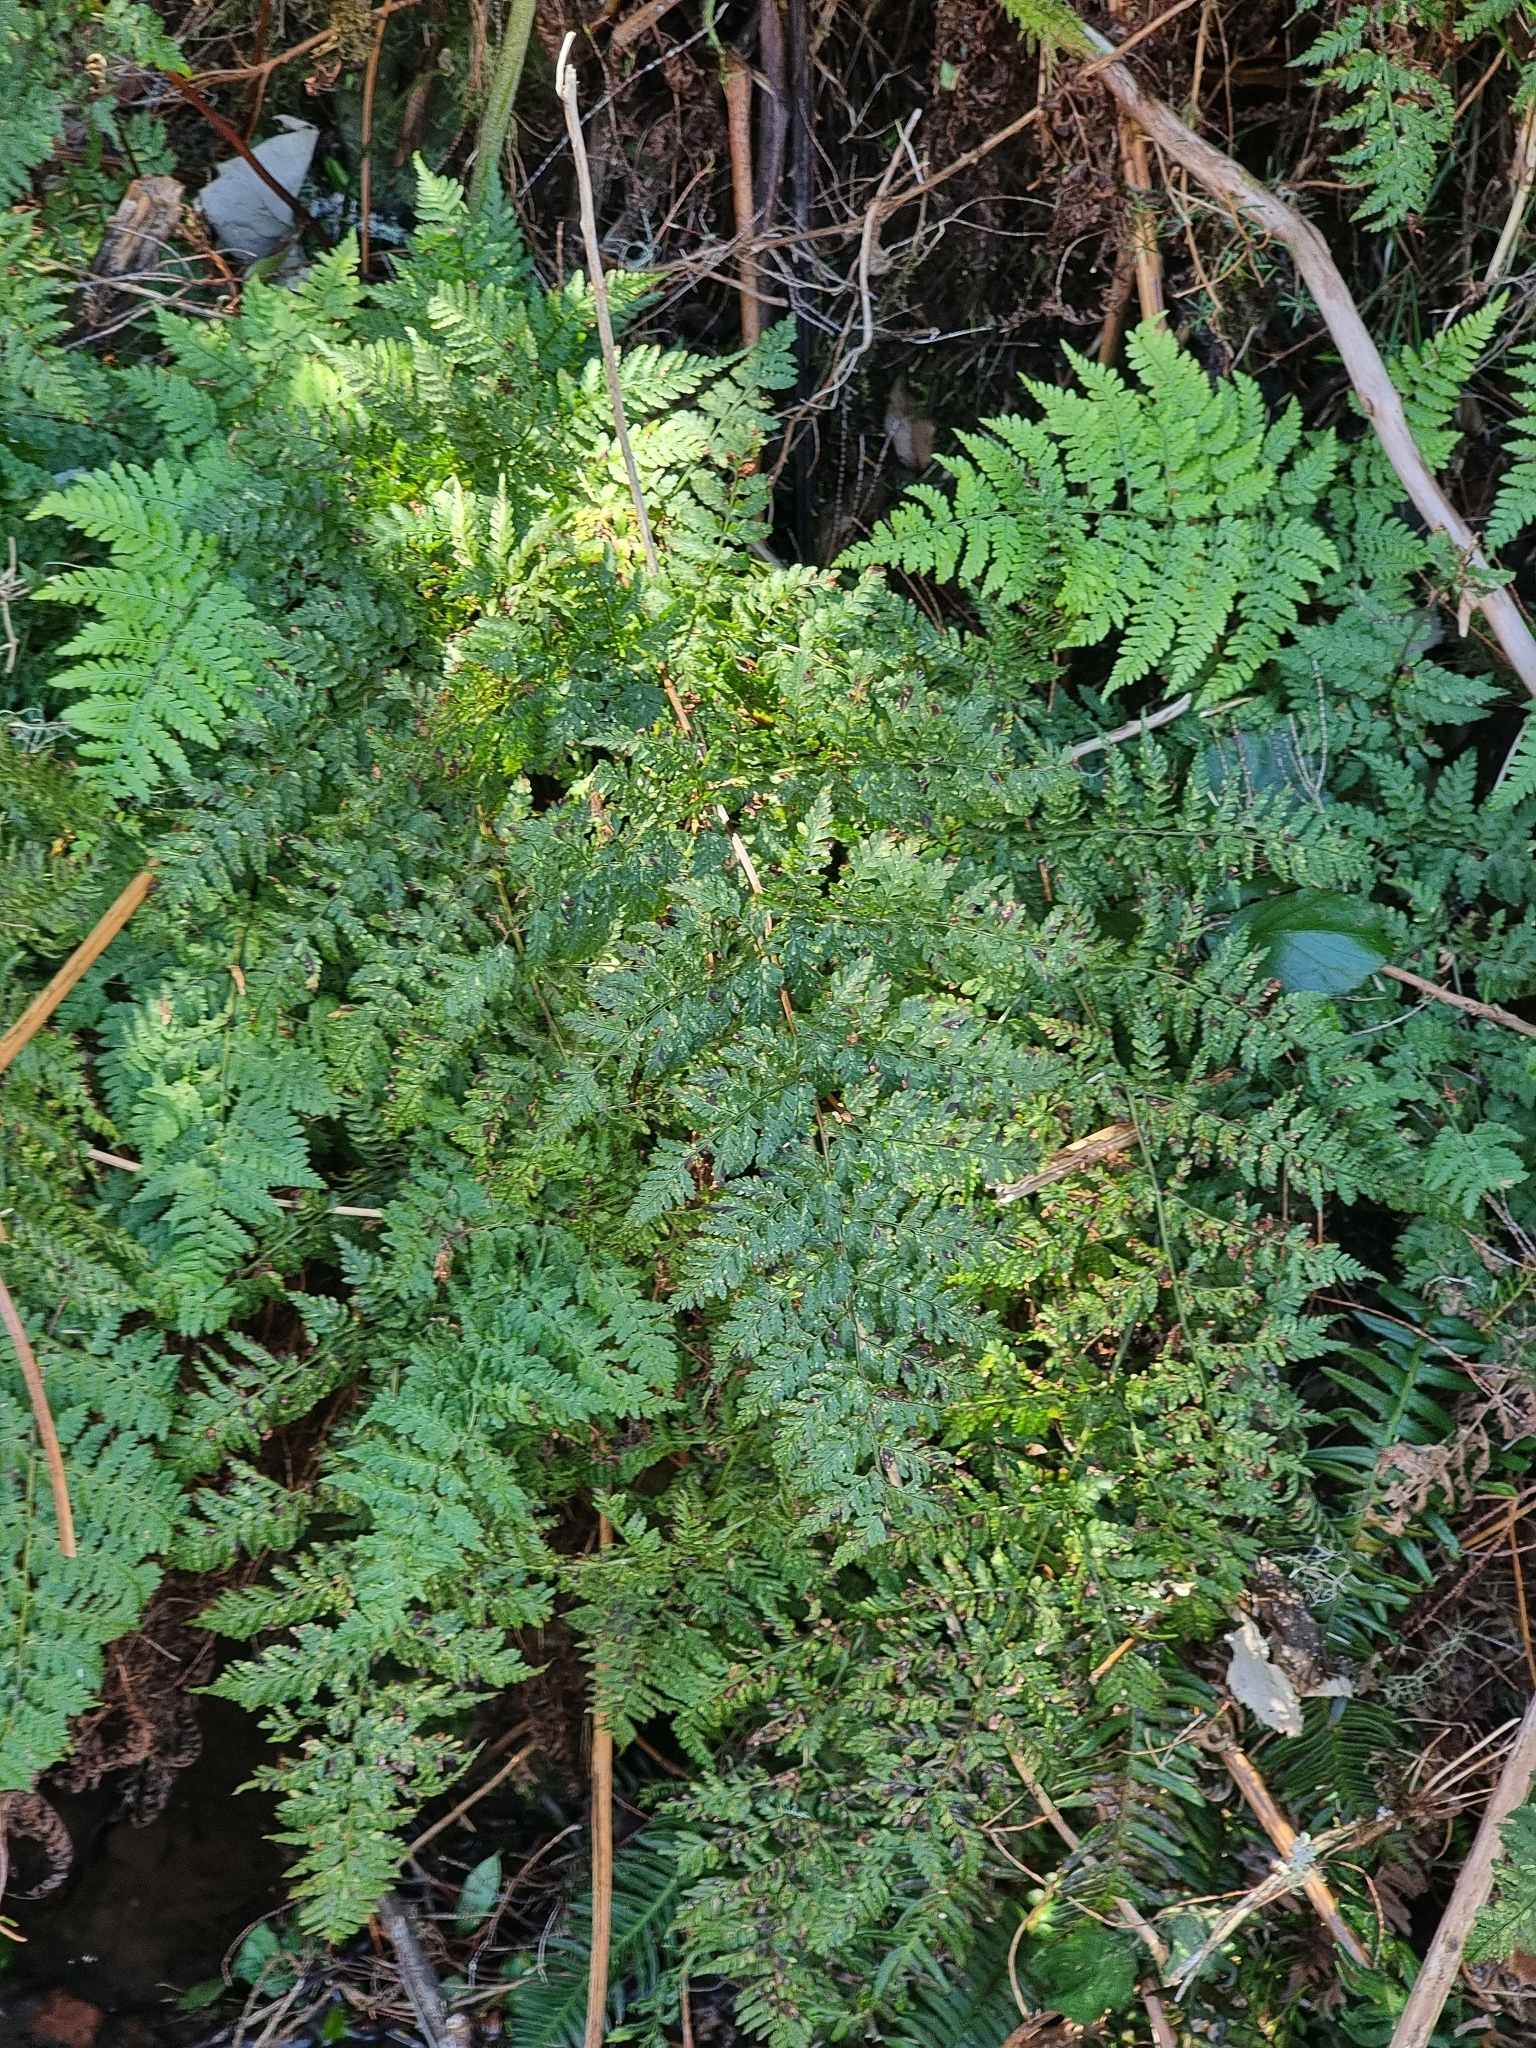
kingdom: Plantae
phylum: Tracheophyta
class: Polypodiopsida
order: Polypodiales
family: Davalliaceae
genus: Davallia
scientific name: Davallia canariensis
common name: Hare's-foot fern
